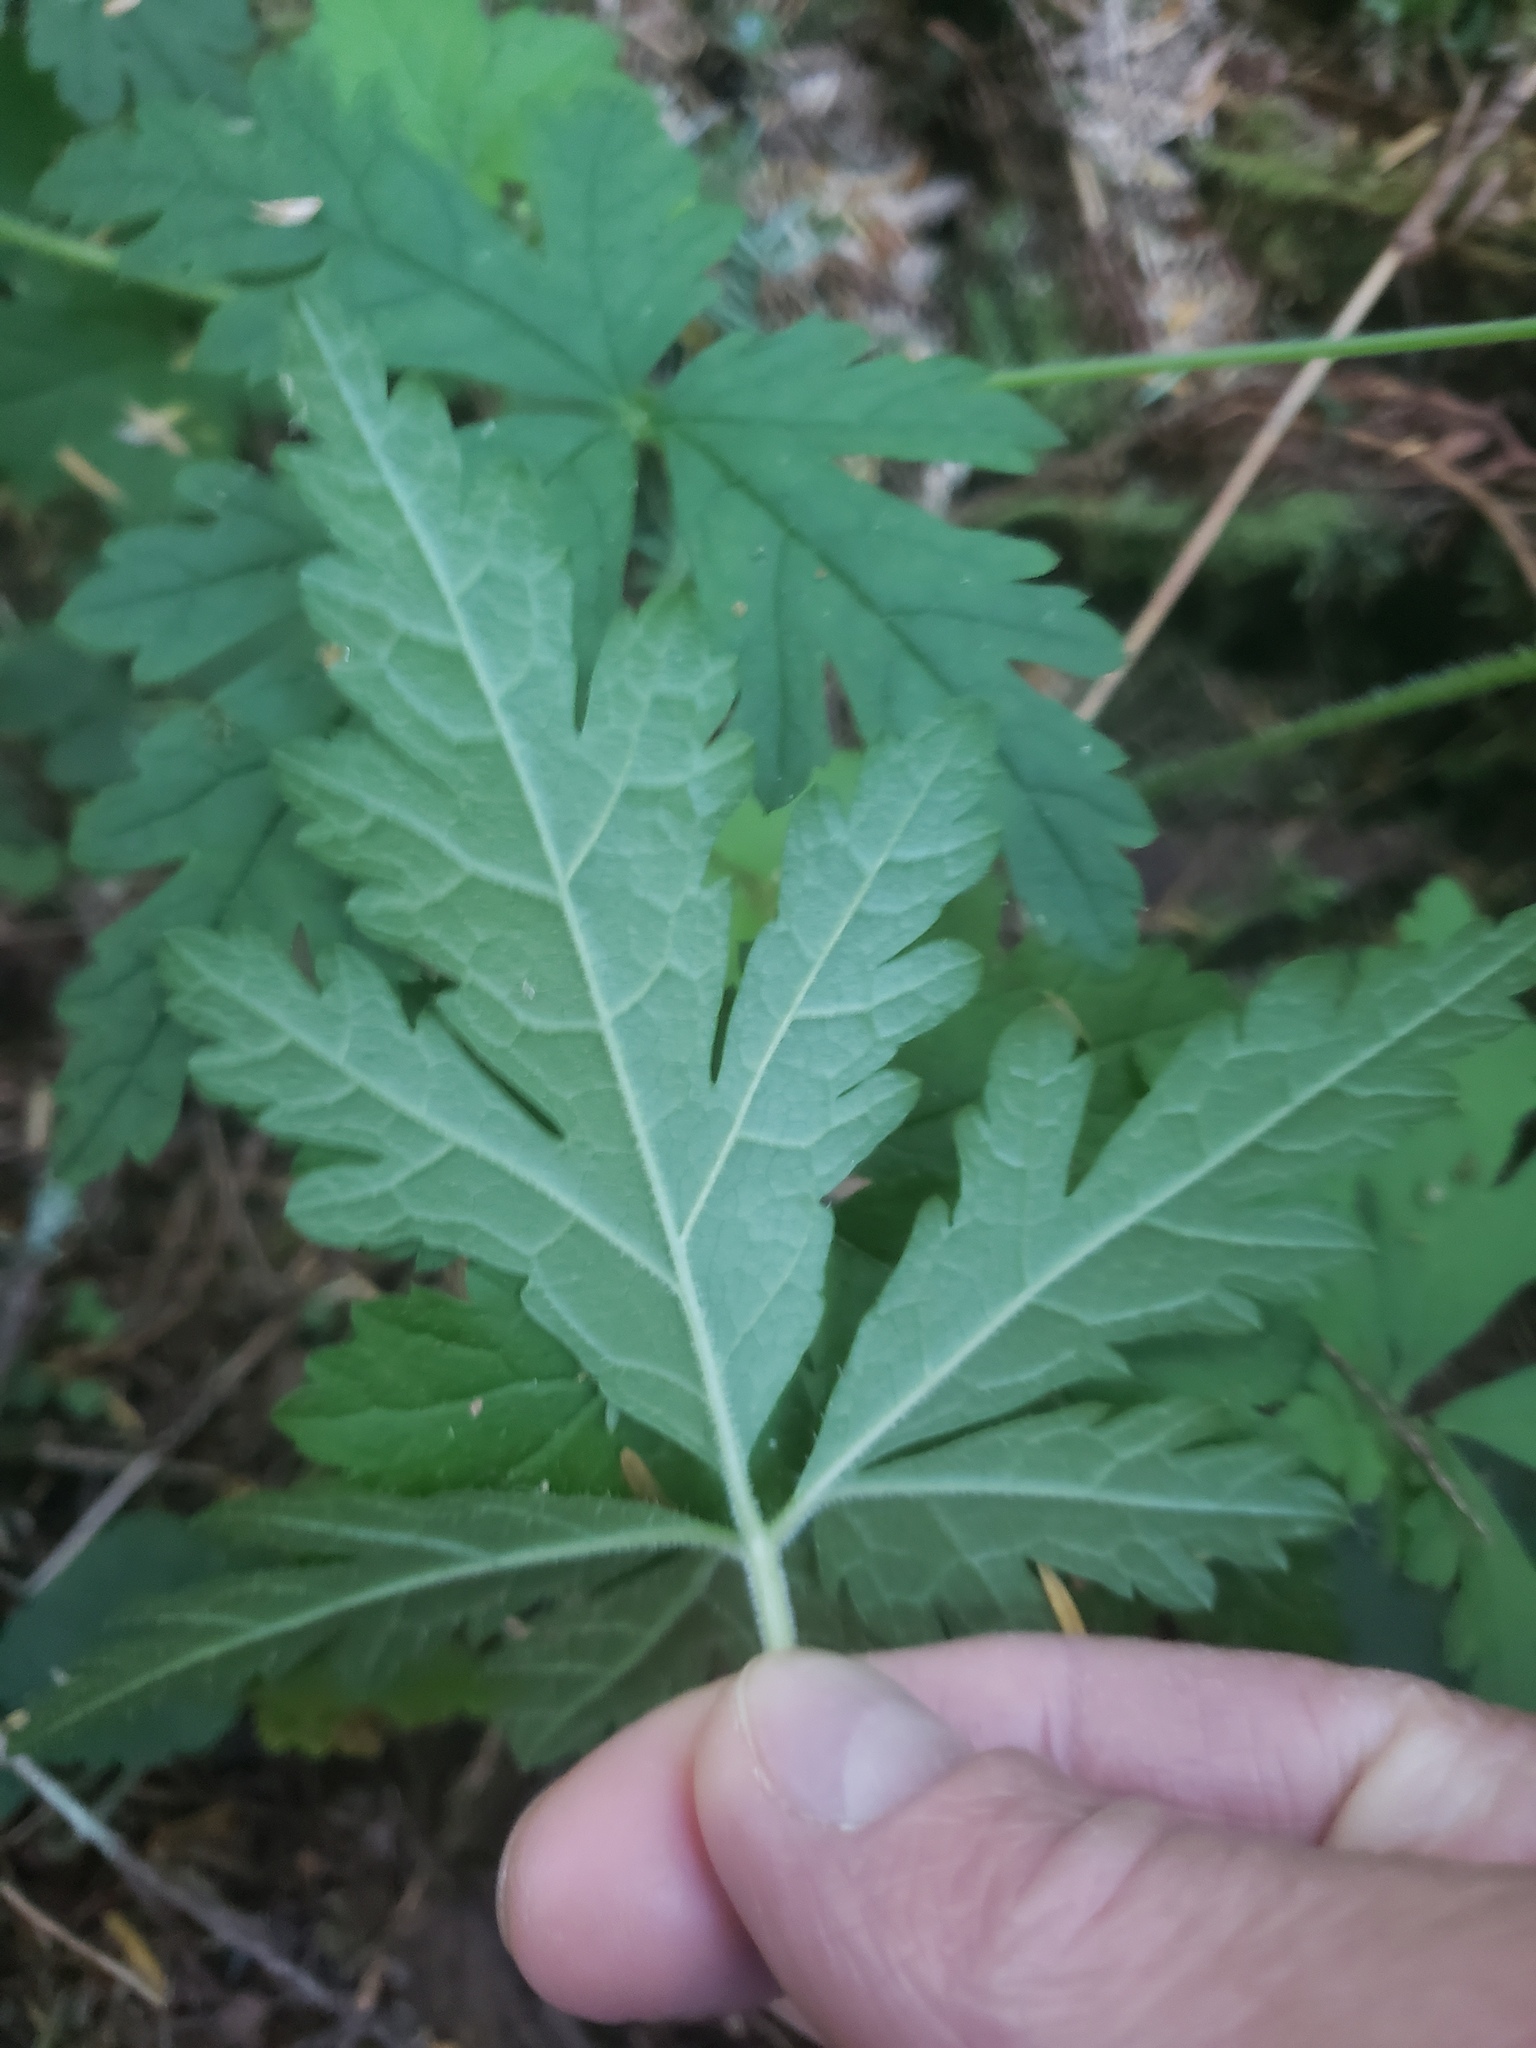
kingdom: Plantae
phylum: Tracheophyta
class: Magnoliopsida
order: Saxifragales
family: Saxifragaceae
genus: Tiarella
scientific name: Tiarella trifoliata
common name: Sugar-scoop
